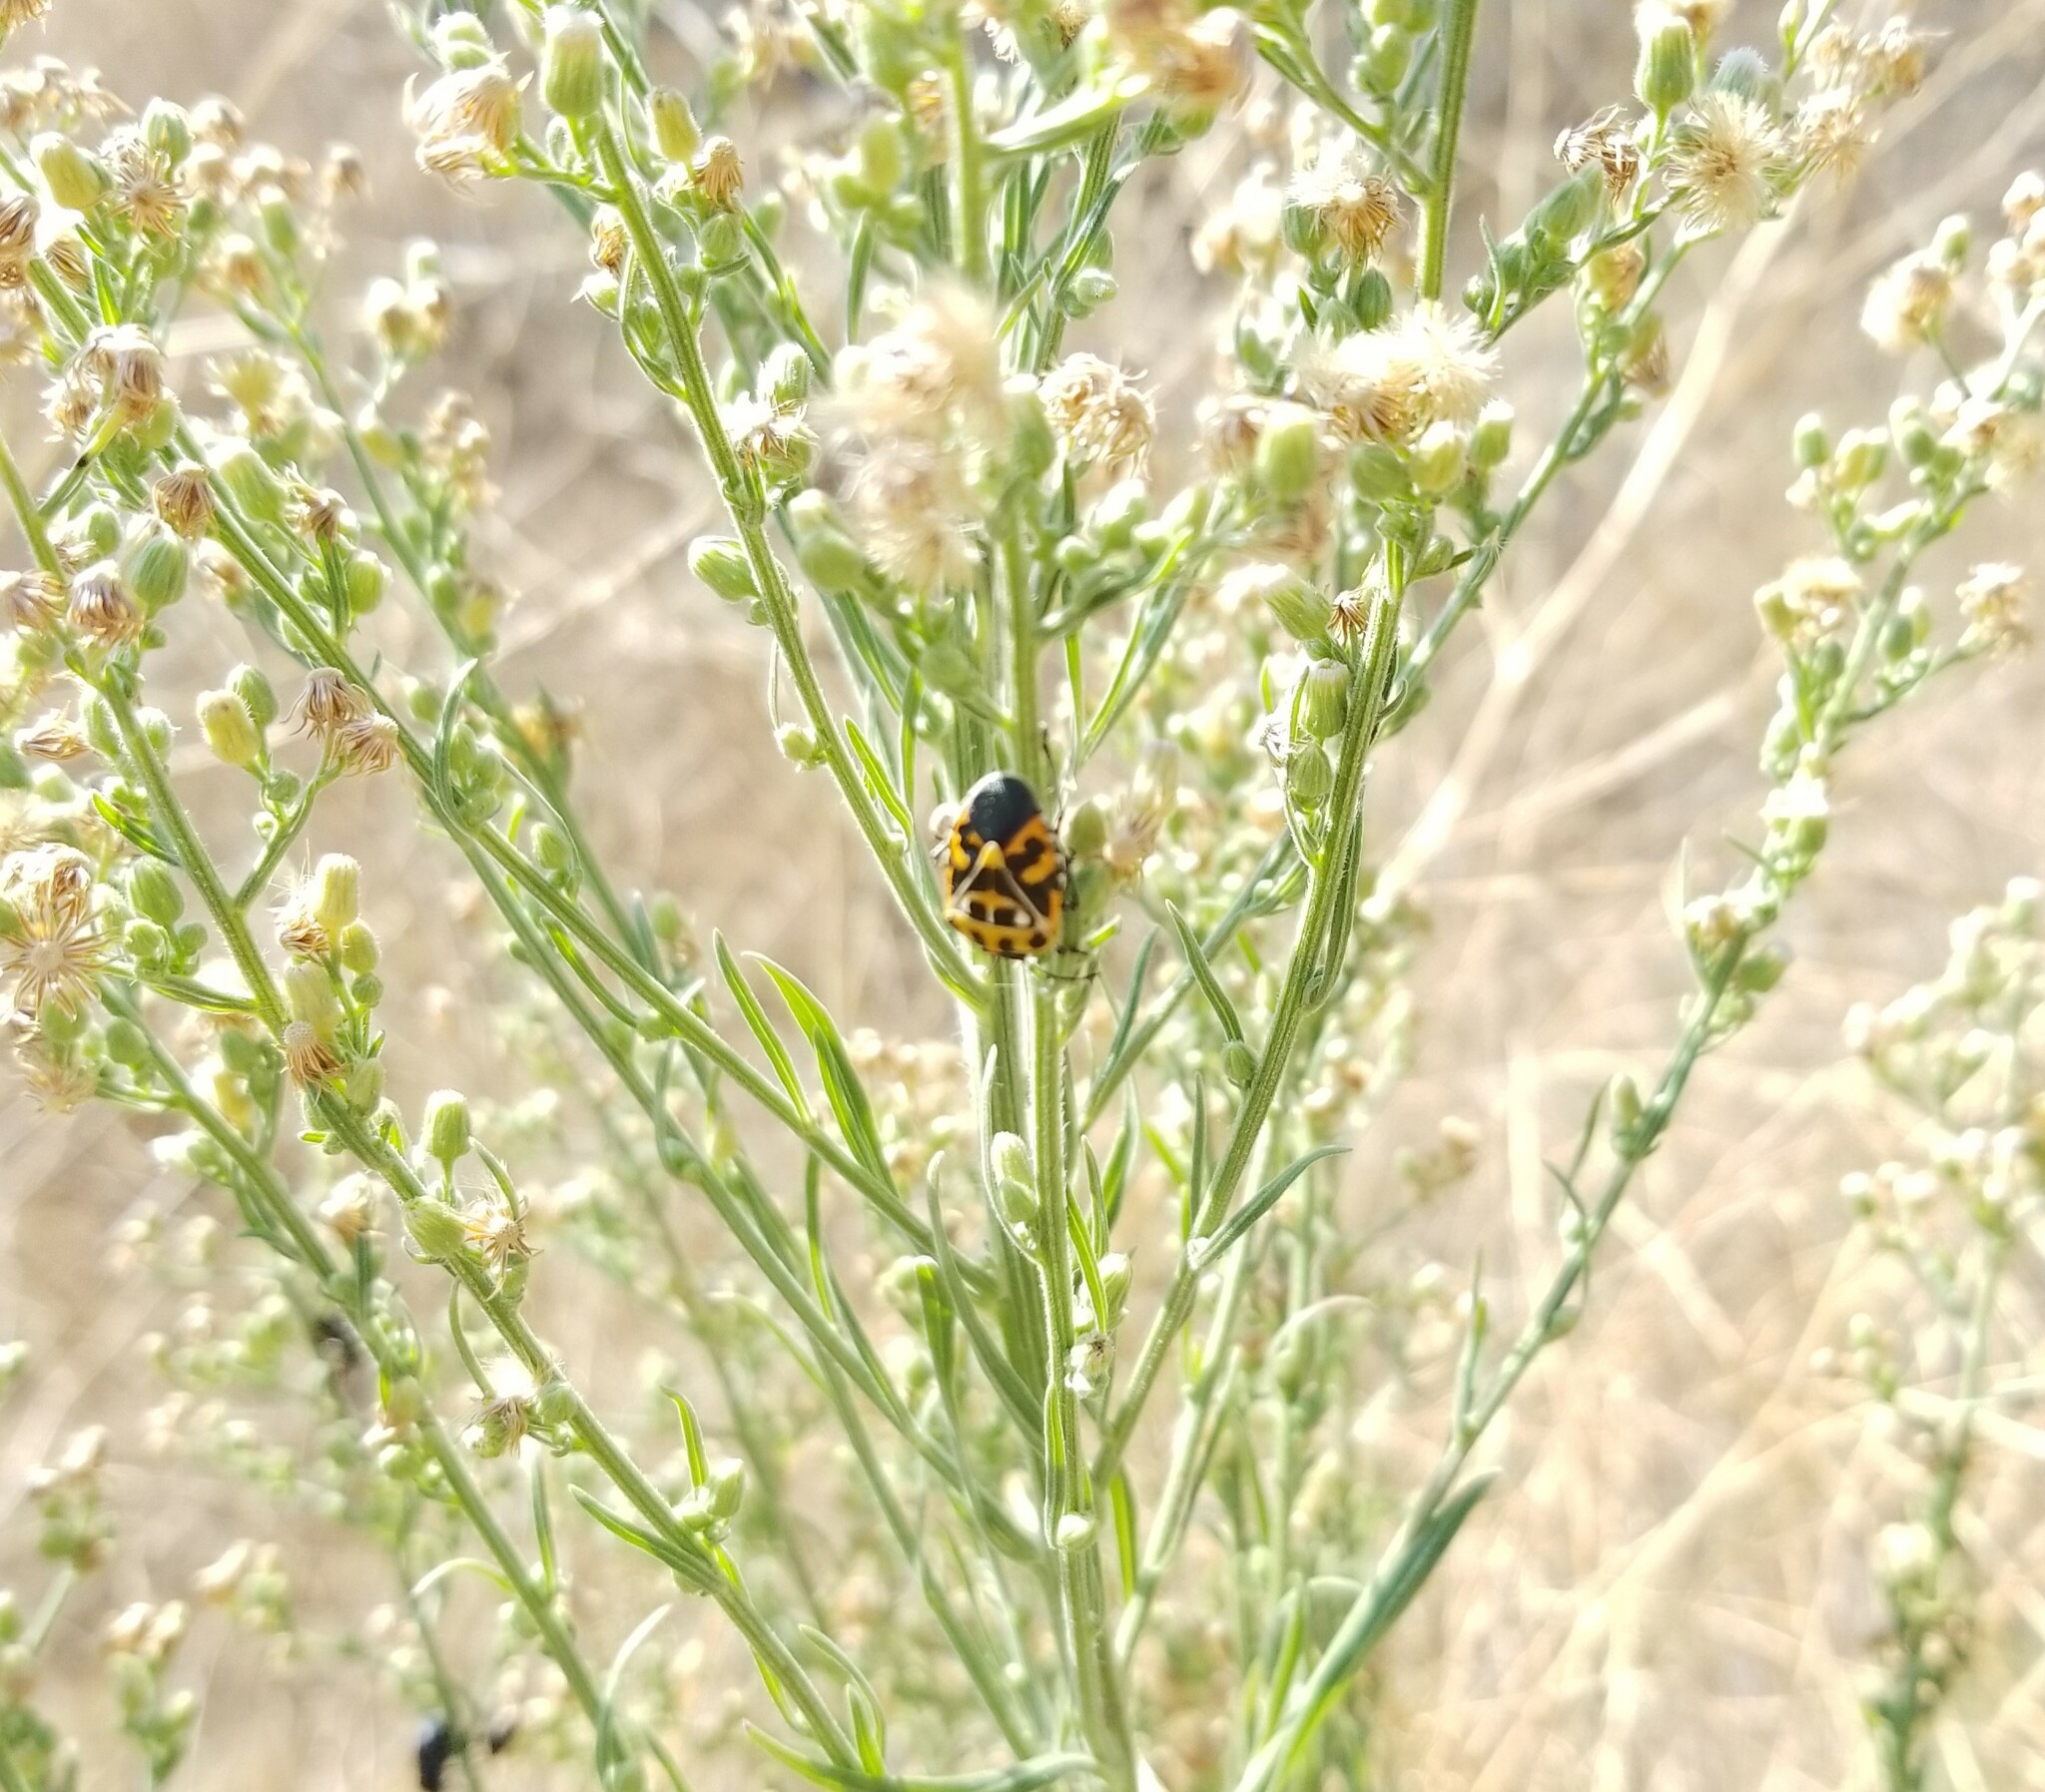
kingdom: Animalia
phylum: Arthropoda
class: Insecta
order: Hemiptera
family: Pentatomidae
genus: Murgantia
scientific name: Murgantia histrionica
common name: Harlequin bug
